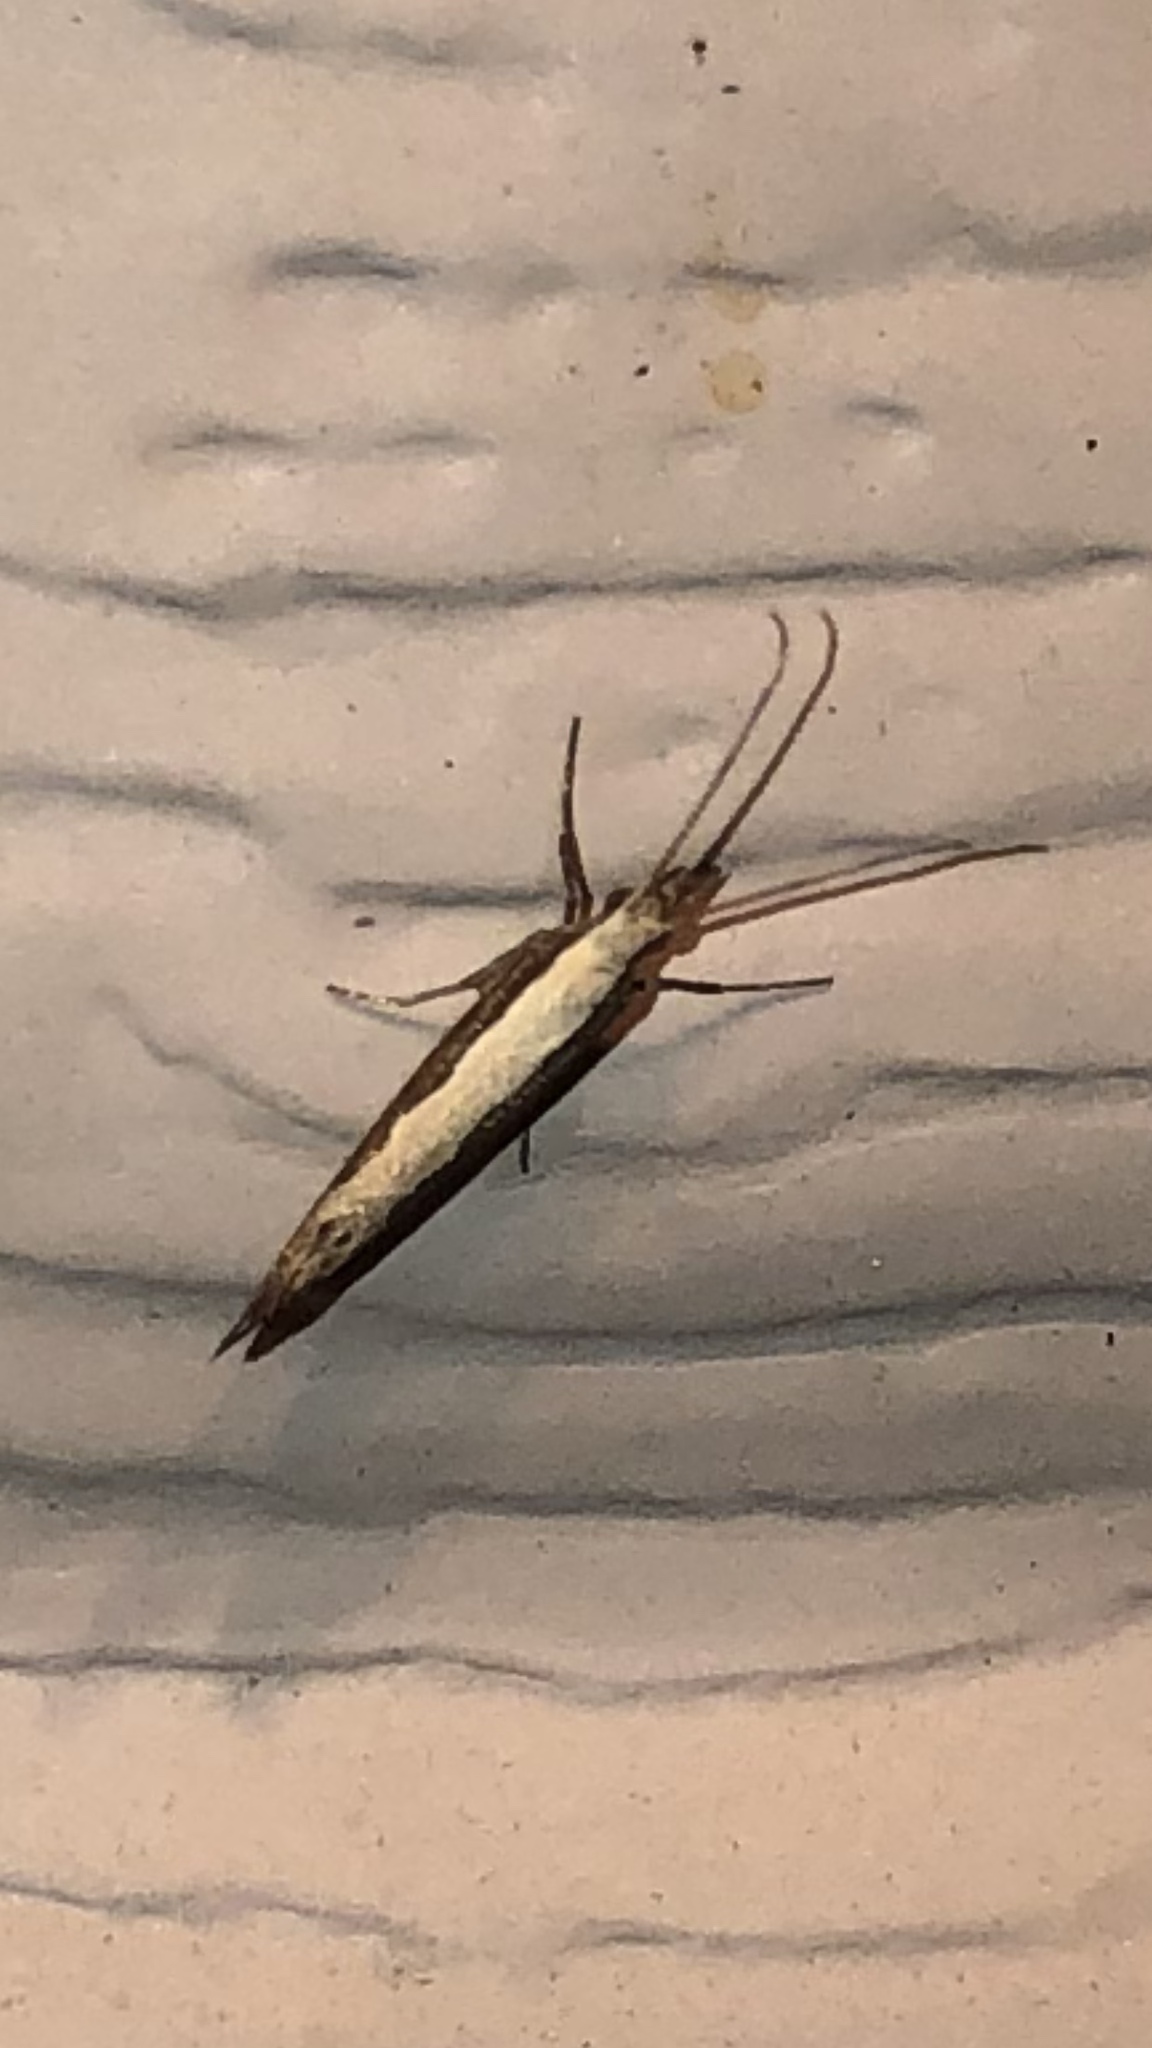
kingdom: Animalia
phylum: Arthropoda
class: Insecta
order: Lepidoptera
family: Plutellidae
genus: Plutella
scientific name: Plutella xylostella
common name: Diamond-back moth
